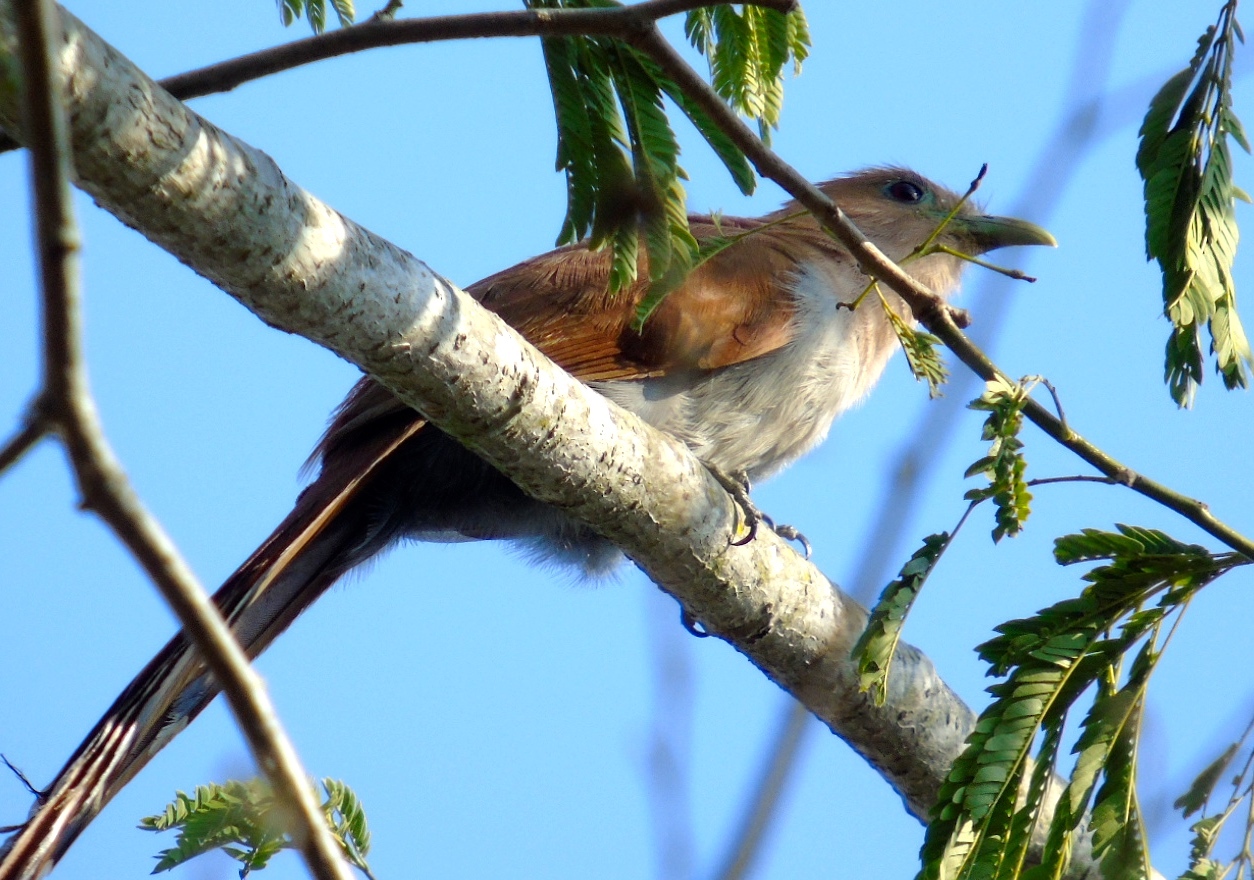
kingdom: Animalia
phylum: Chordata
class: Aves
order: Cuculiformes
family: Cuculidae
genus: Piaya
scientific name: Piaya cayana
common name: Squirrel cuckoo
